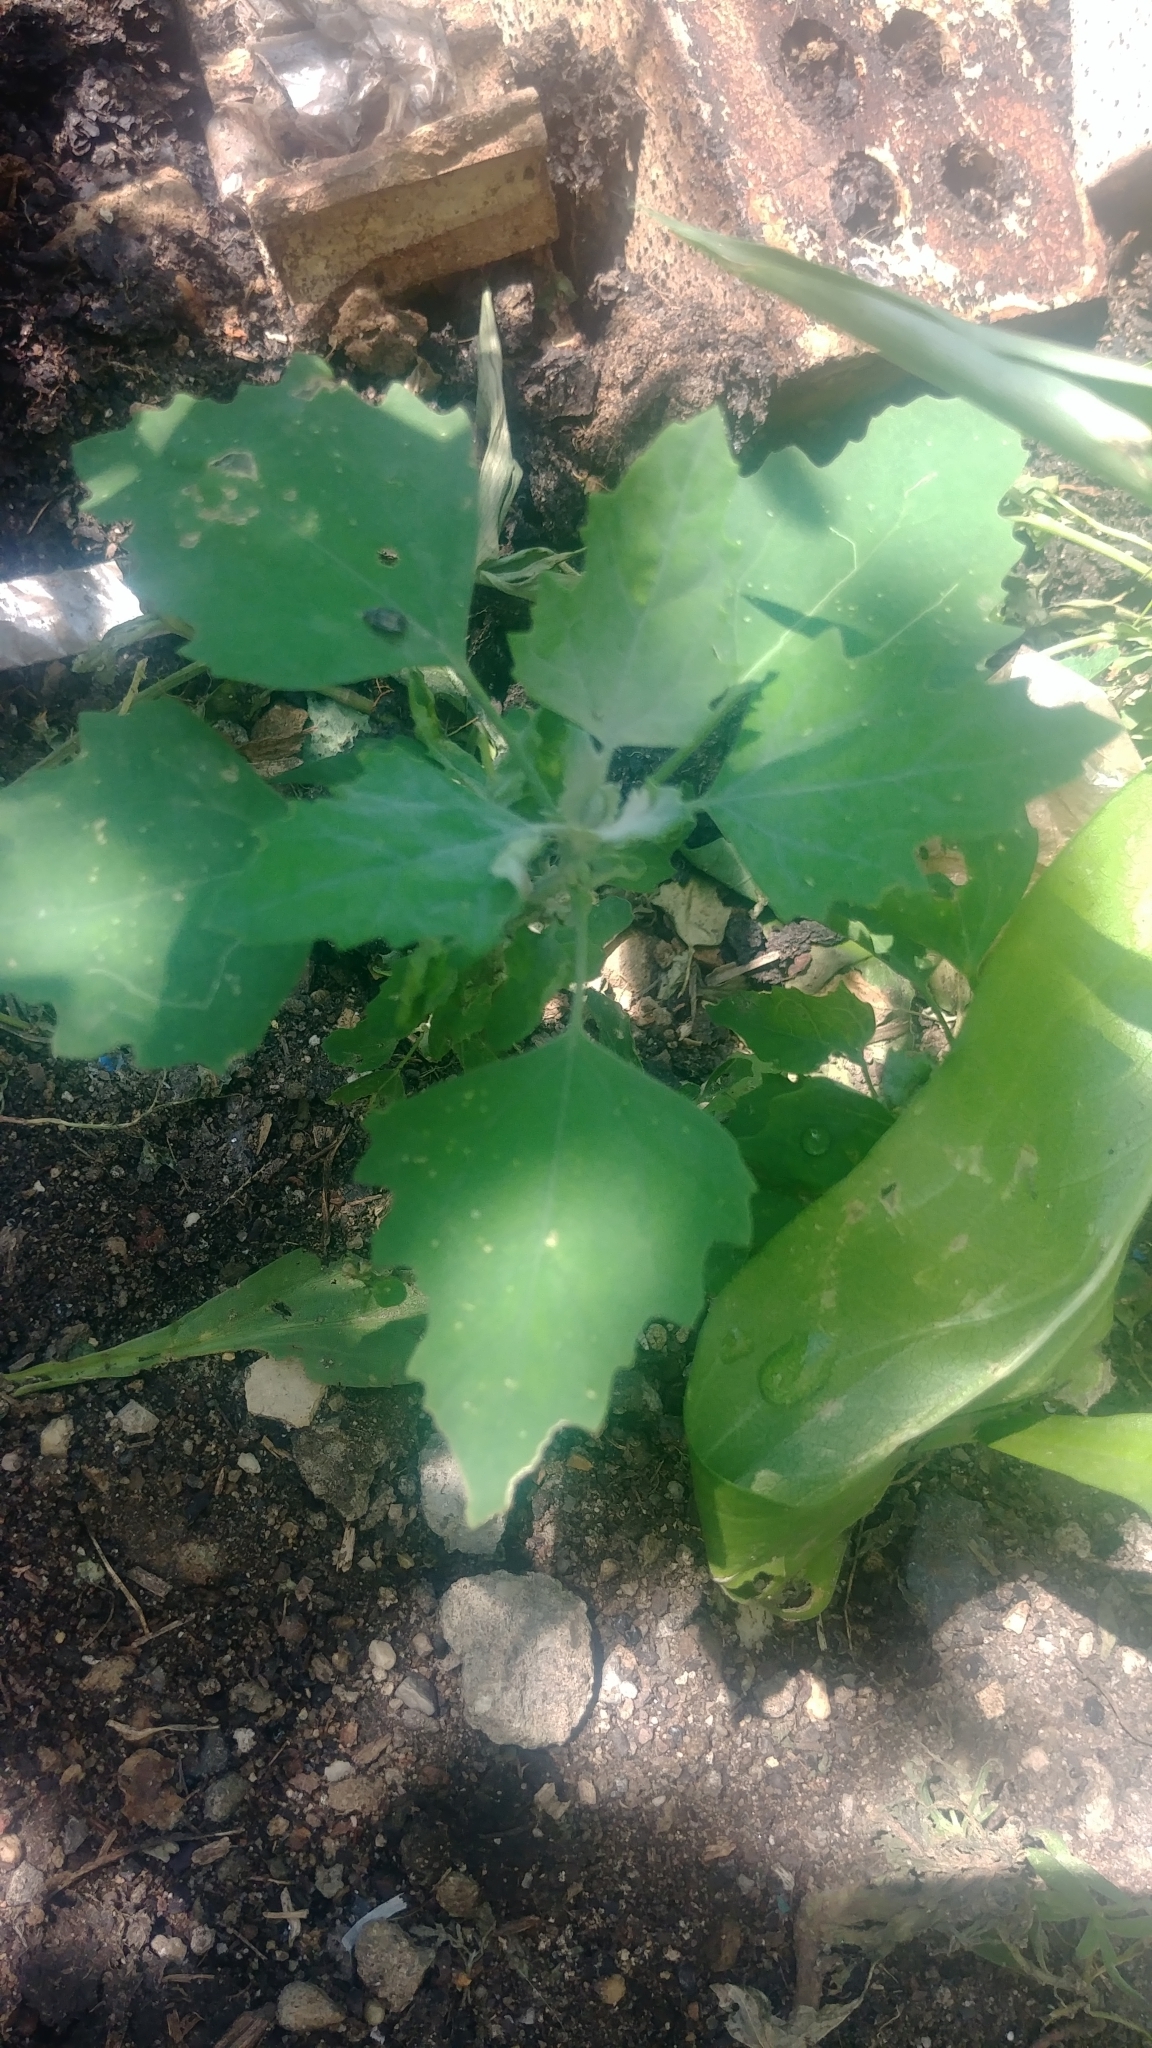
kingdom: Plantae
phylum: Tracheophyta
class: Magnoliopsida
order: Caryophyllales
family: Amaranthaceae
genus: Chenopodium
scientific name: Chenopodium album
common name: Fat-hen
